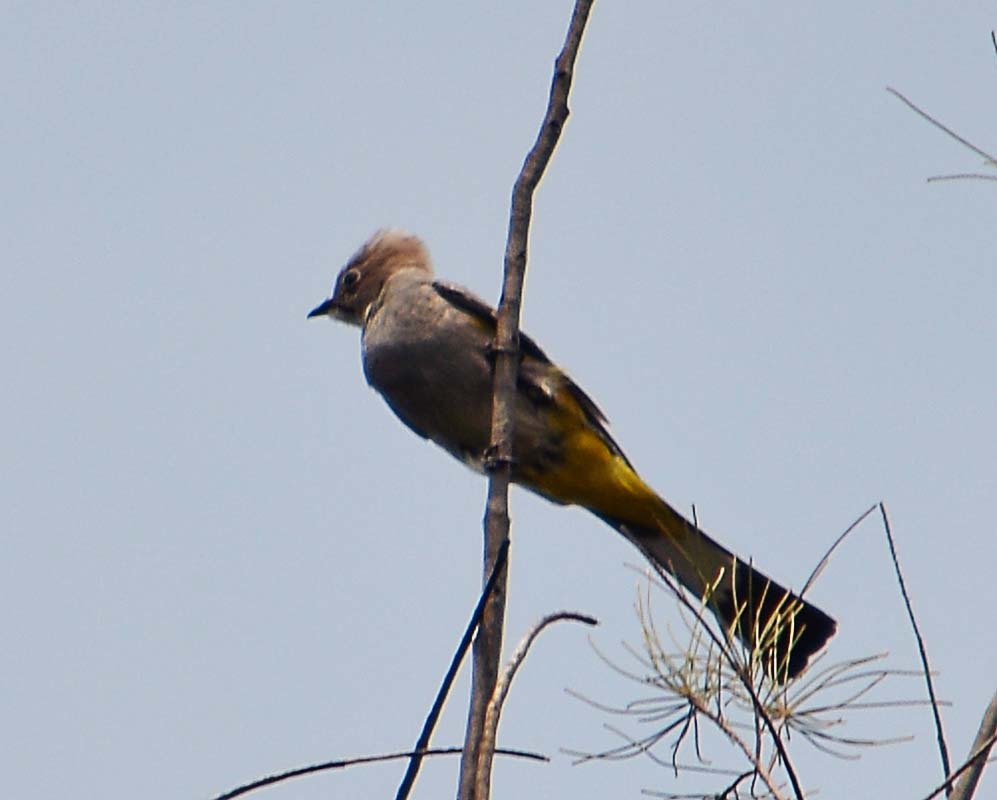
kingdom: Animalia
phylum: Chordata
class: Aves
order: Passeriformes
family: Ptilogonatidae
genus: Ptilogonys
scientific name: Ptilogonys cinereus
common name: Gray silky-flycatcher
